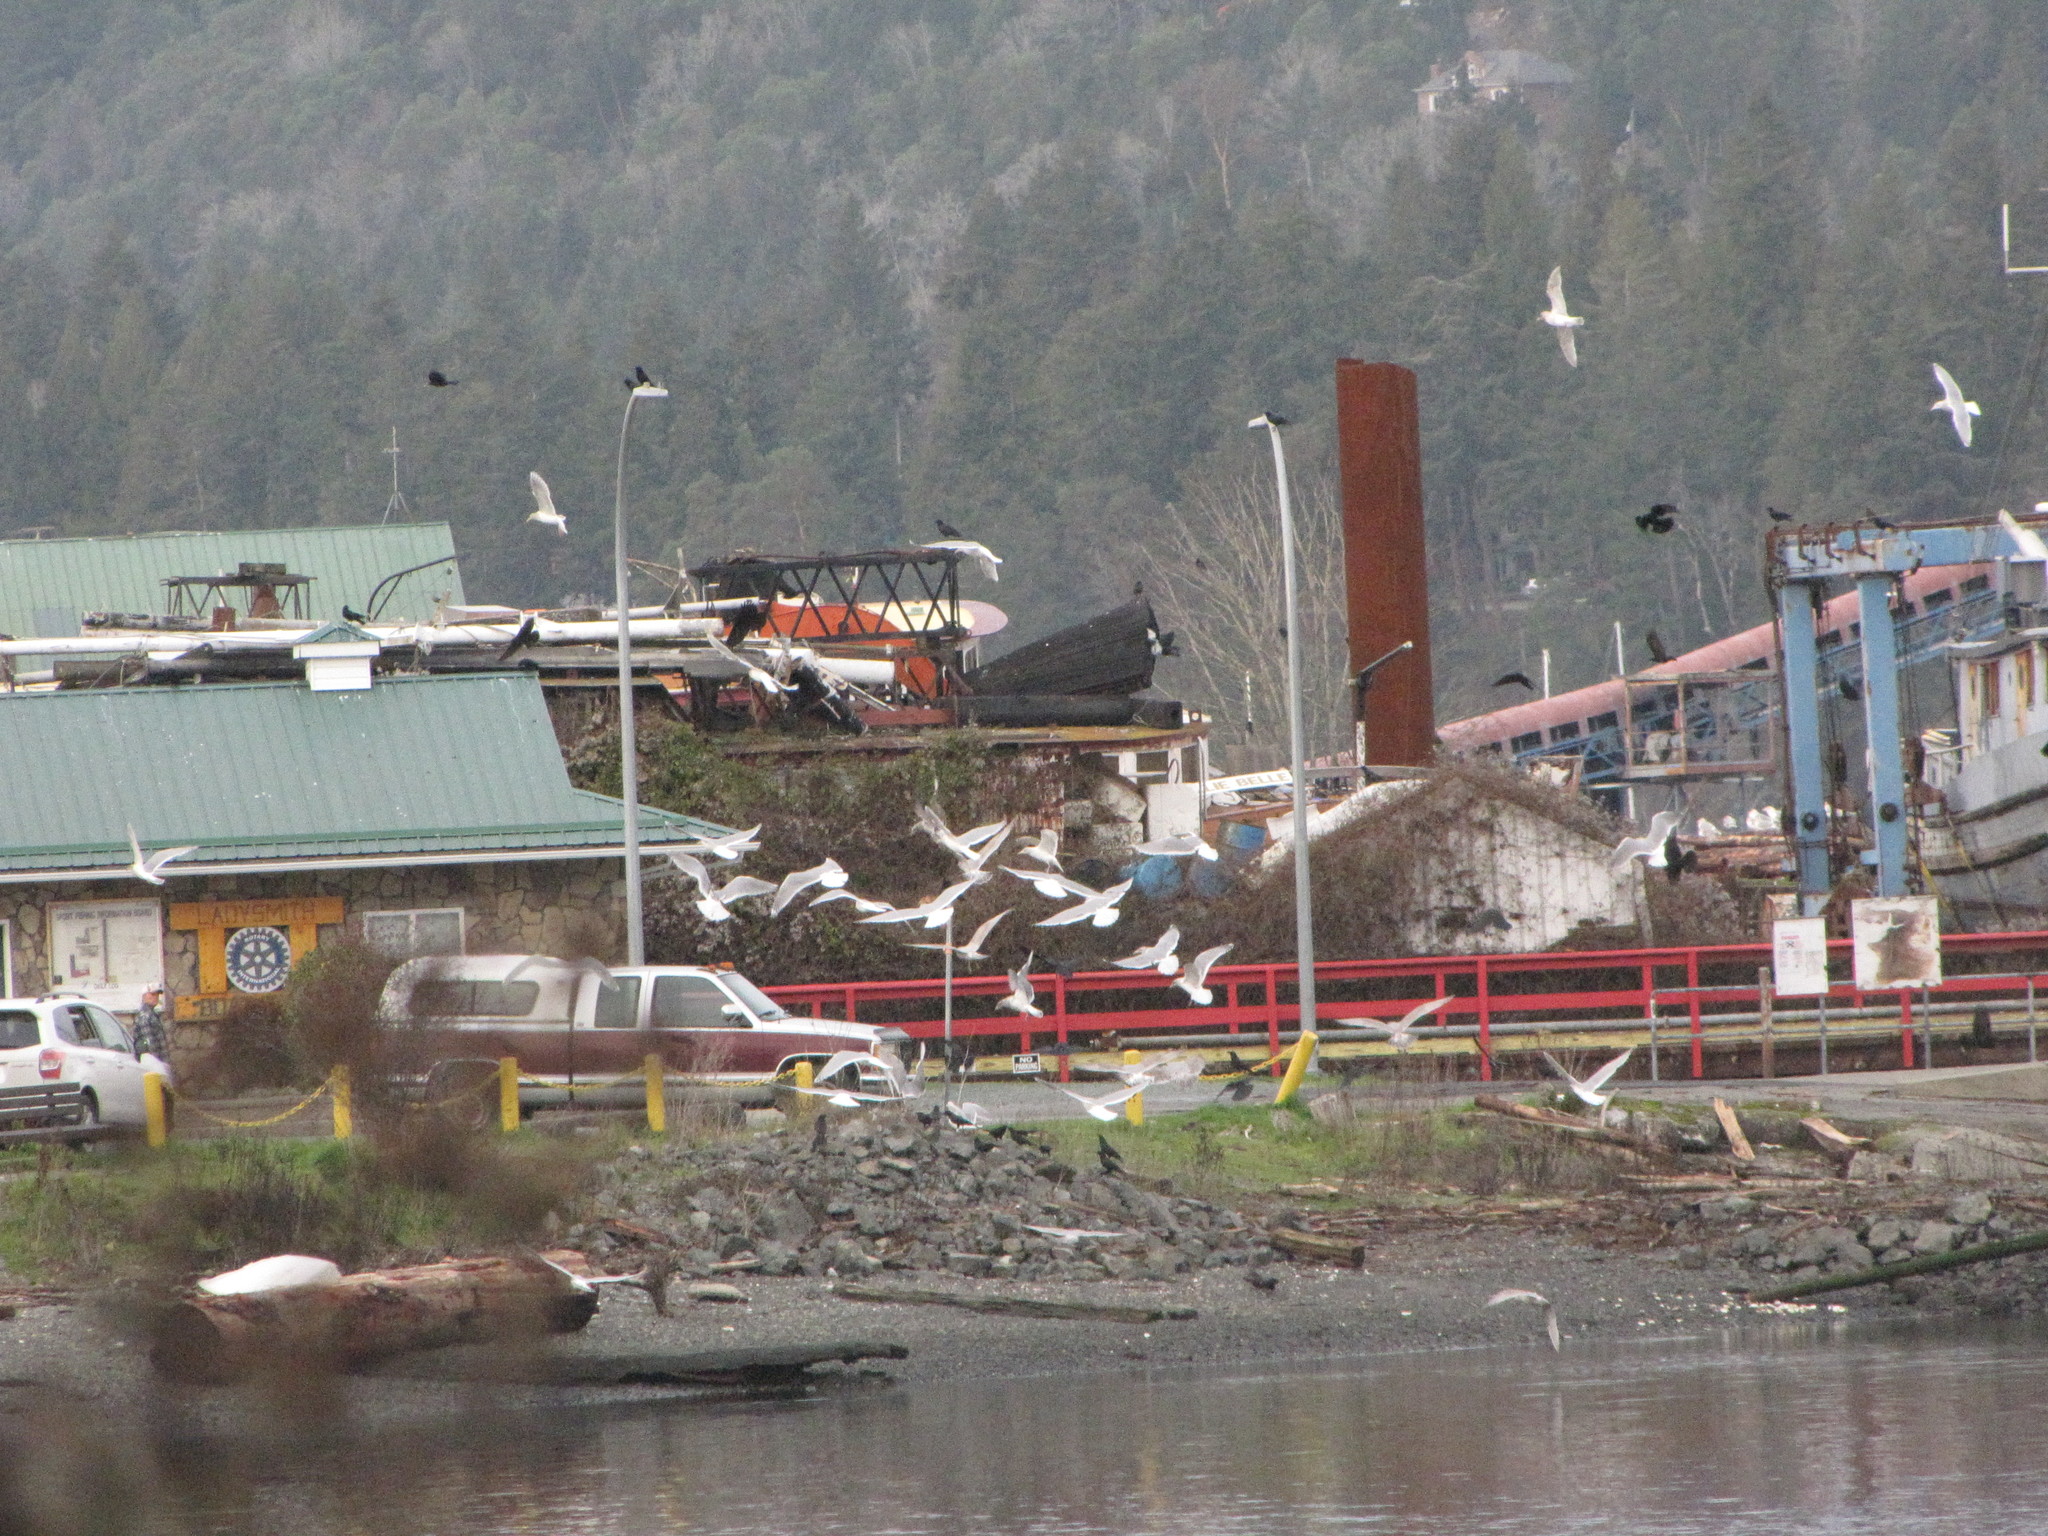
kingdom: Animalia
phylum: Chordata
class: Aves
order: Passeriformes
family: Corvidae
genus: Corvus
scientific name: Corvus brachyrhynchos
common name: American crow
